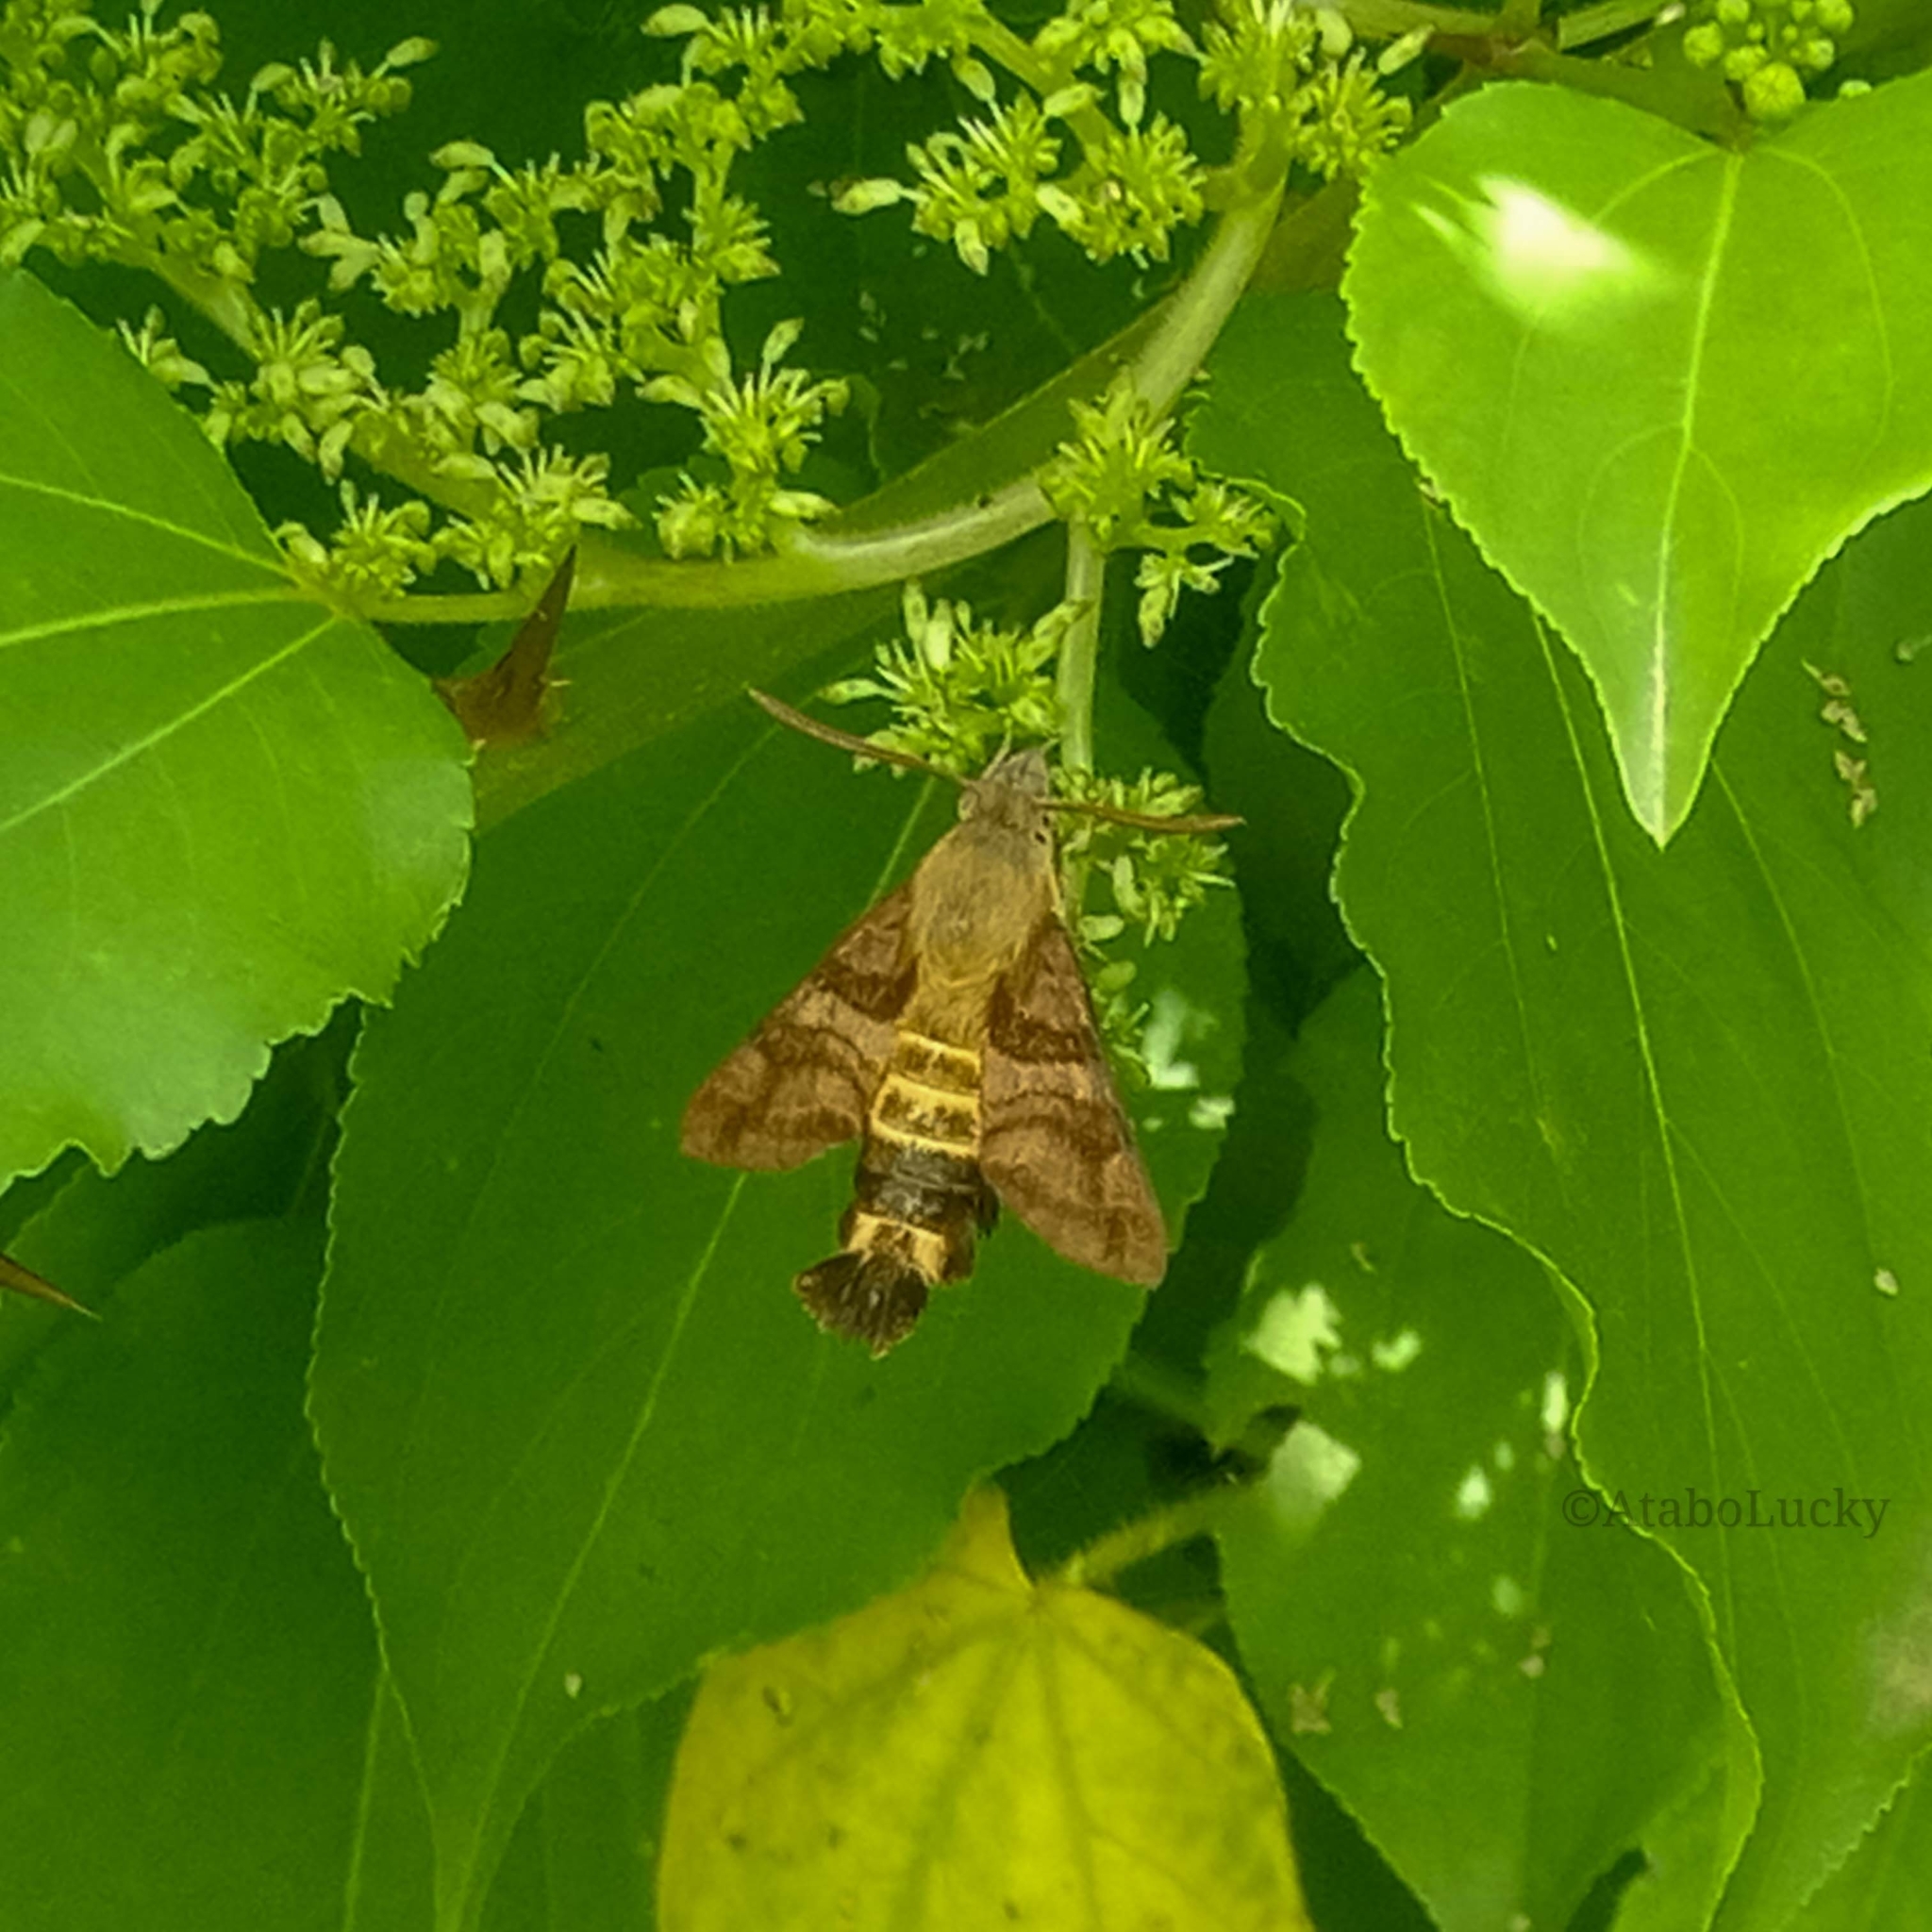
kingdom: Animalia
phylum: Arthropoda
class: Insecta
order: Lepidoptera
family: Sphingidae
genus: Macroglossum
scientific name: Macroglossum trochilus
